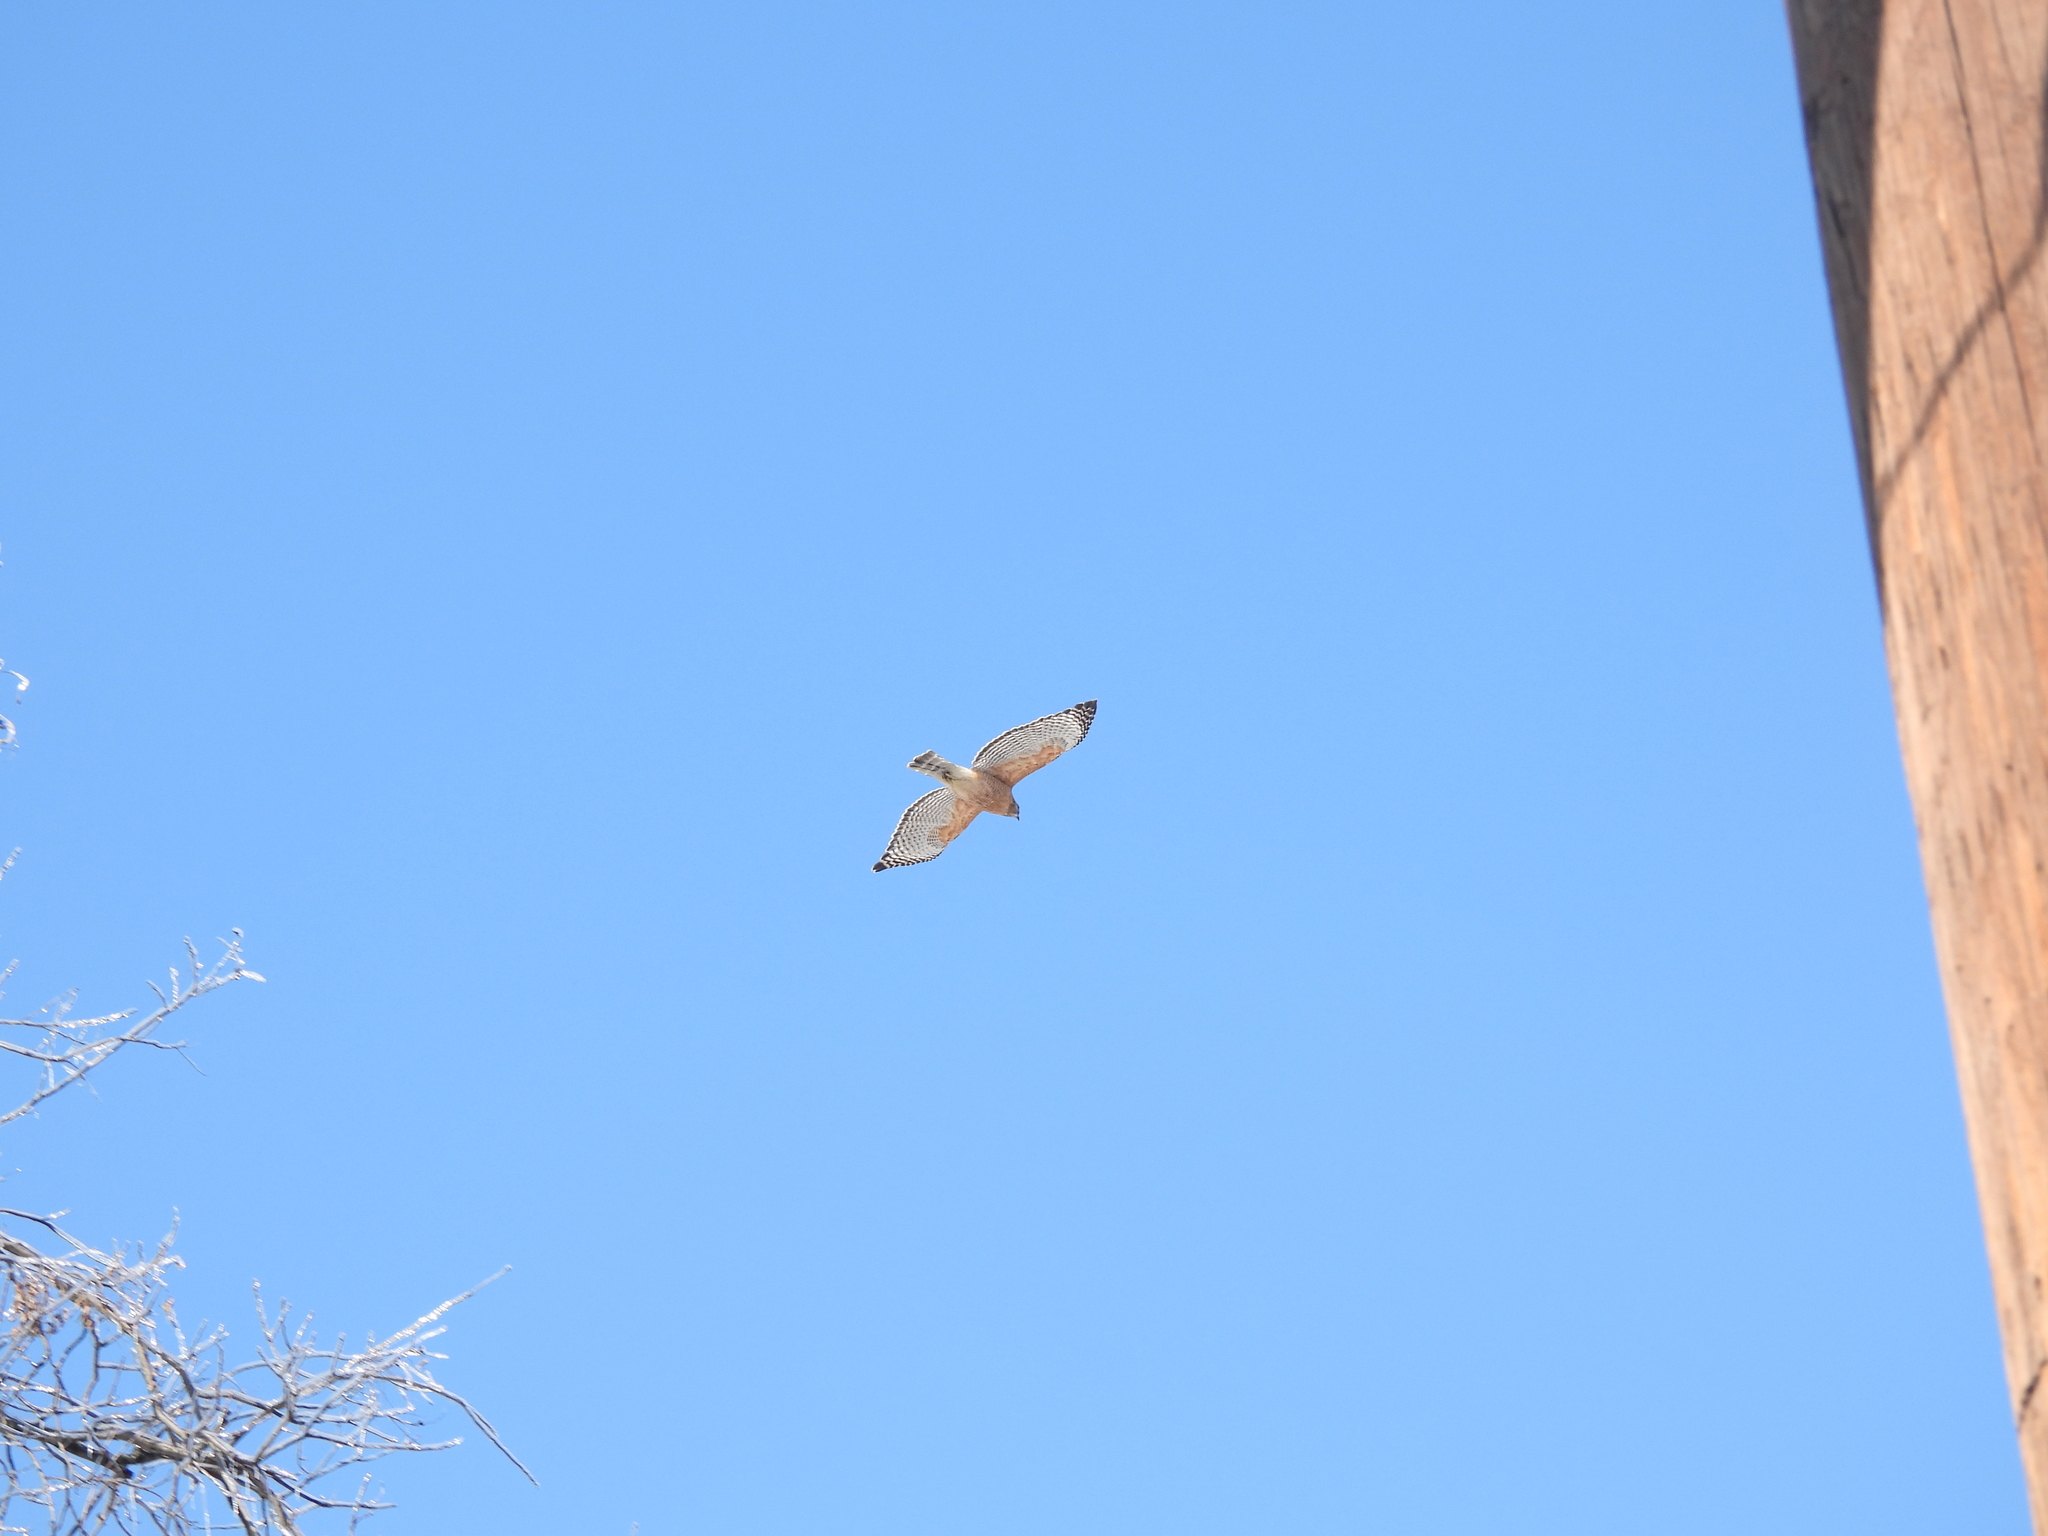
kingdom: Animalia
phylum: Chordata
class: Aves
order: Accipitriformes
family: Accipitridae
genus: Buteo
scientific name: Buteo lineatus
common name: Red-shouldered hawk
